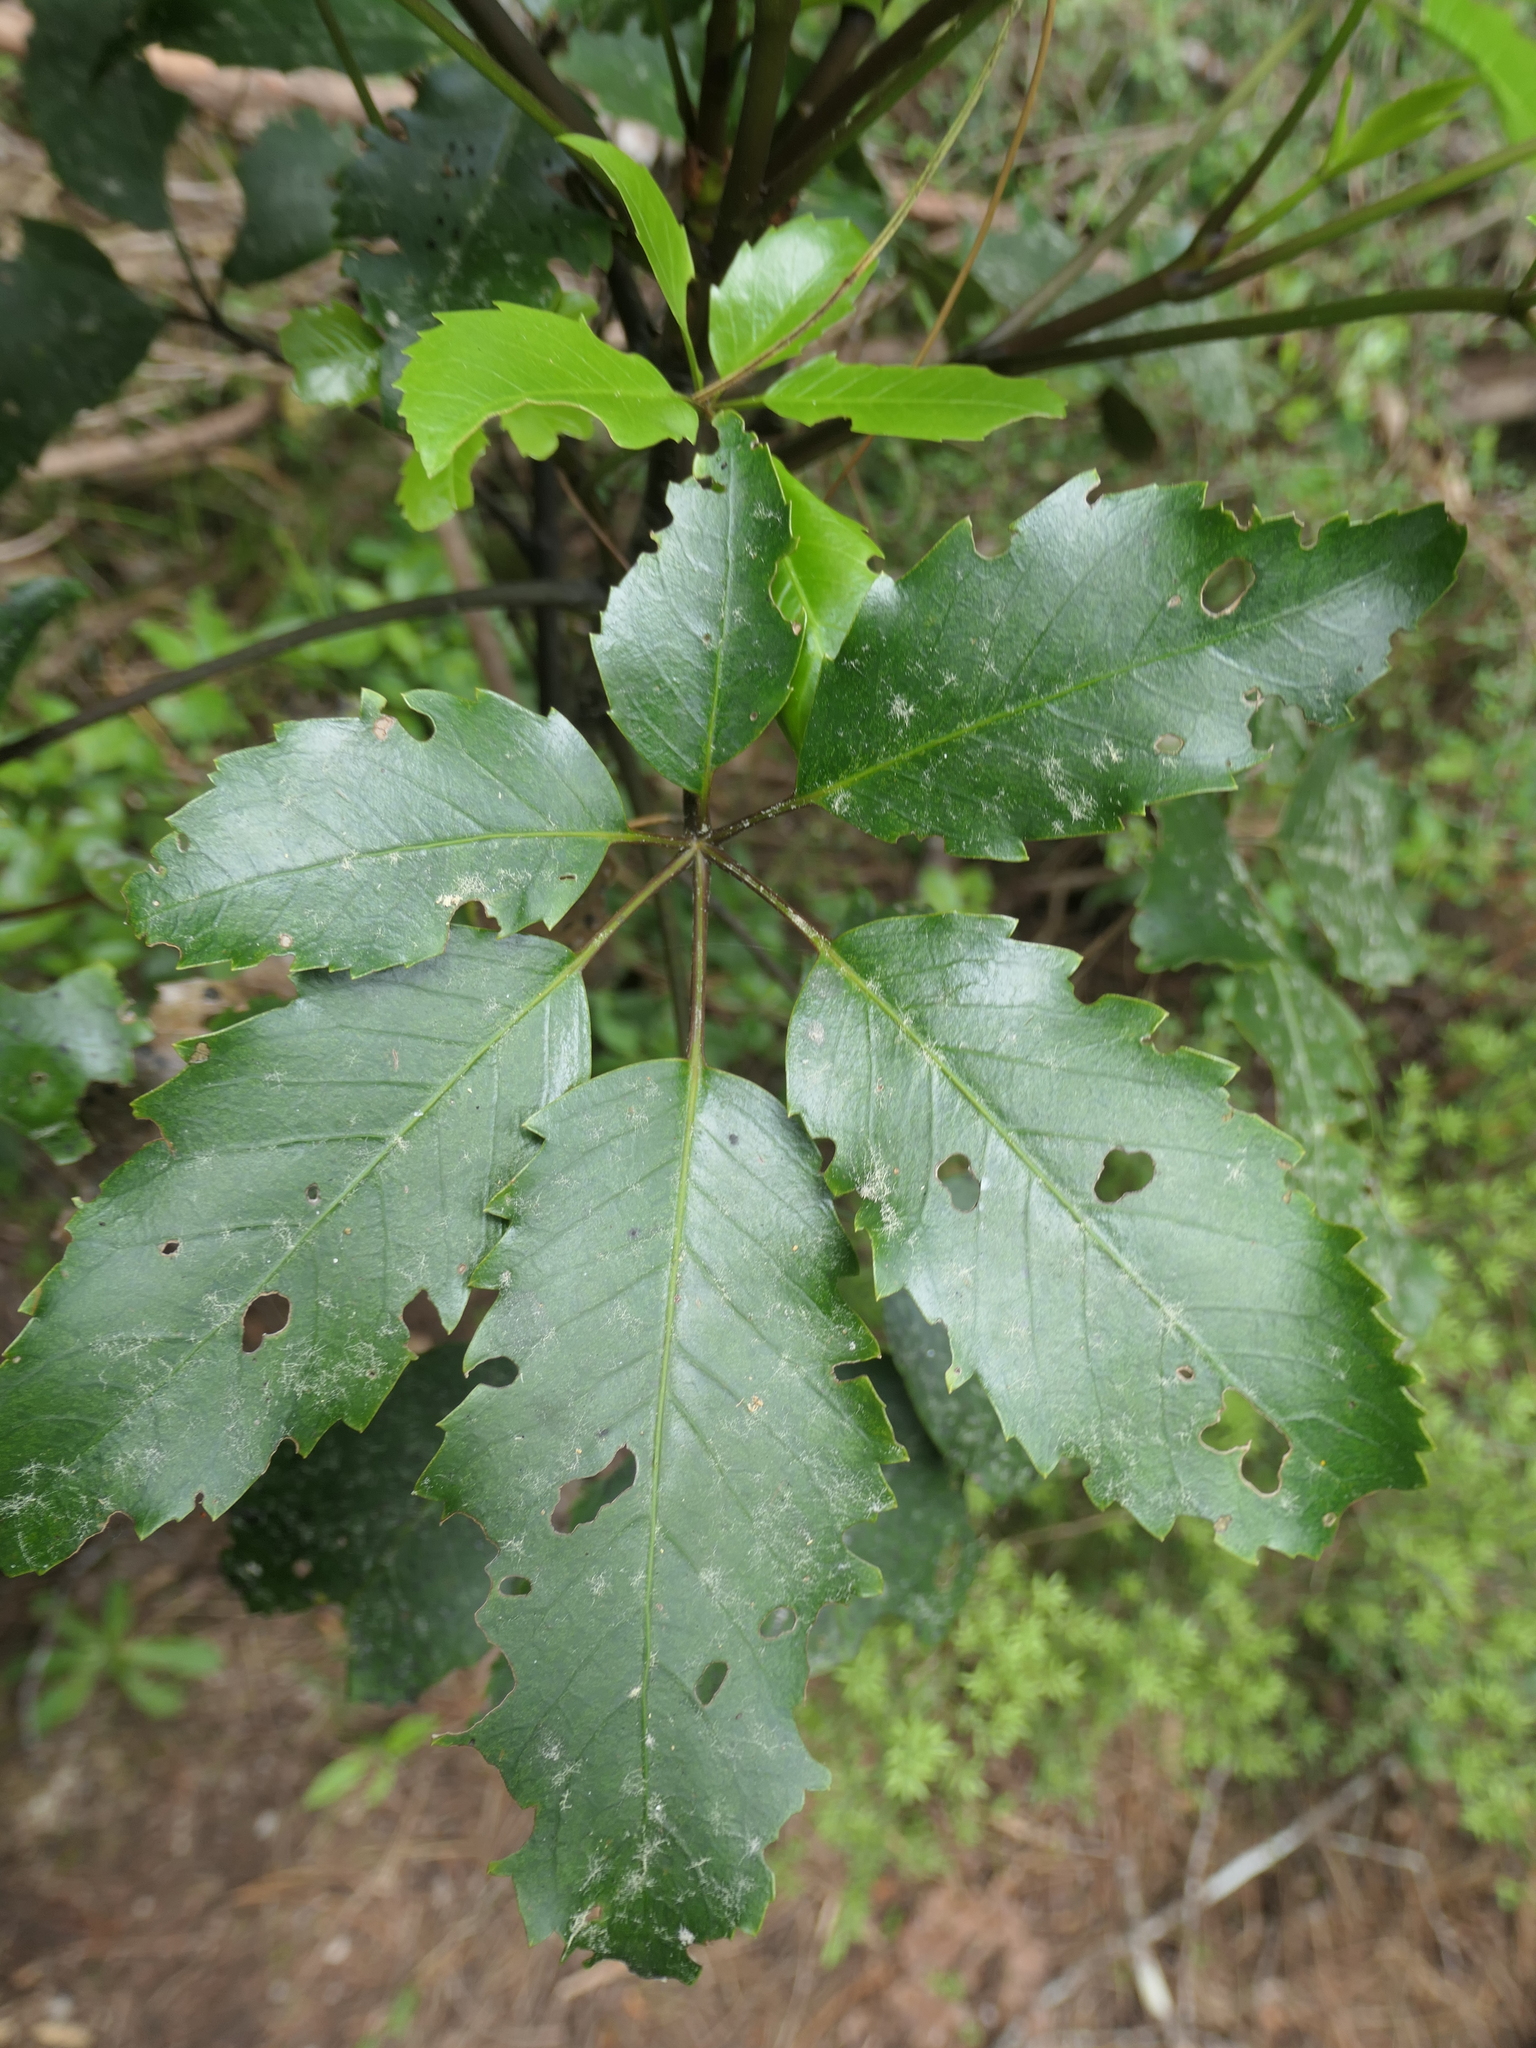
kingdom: Plantae
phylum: Tracheophyta
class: Magnoliopsida
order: Apiales
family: Araliaceae
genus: Neopanax
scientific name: Neopanax arboreus
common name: Five-fingers
